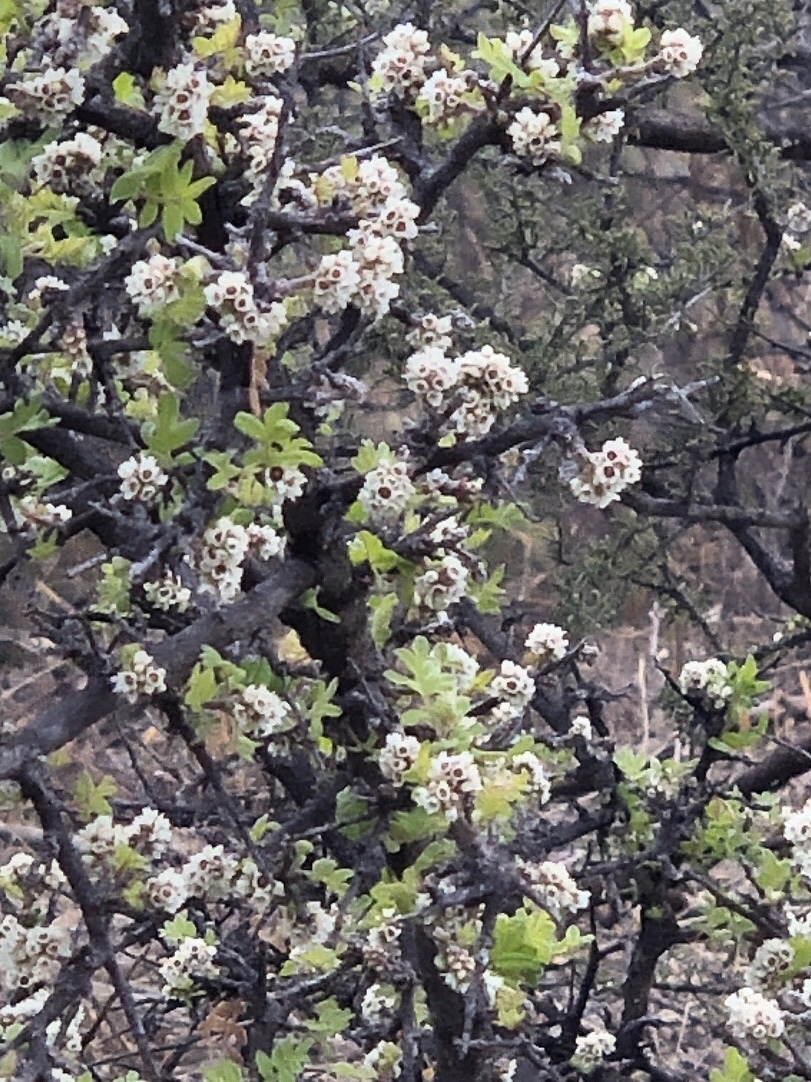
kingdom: Plantae
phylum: Tracheophyta
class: Magnoliopsida
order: Sapindales
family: Anacardiaceae
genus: Rhus
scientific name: Rhus microphylla
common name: Desert sumac
